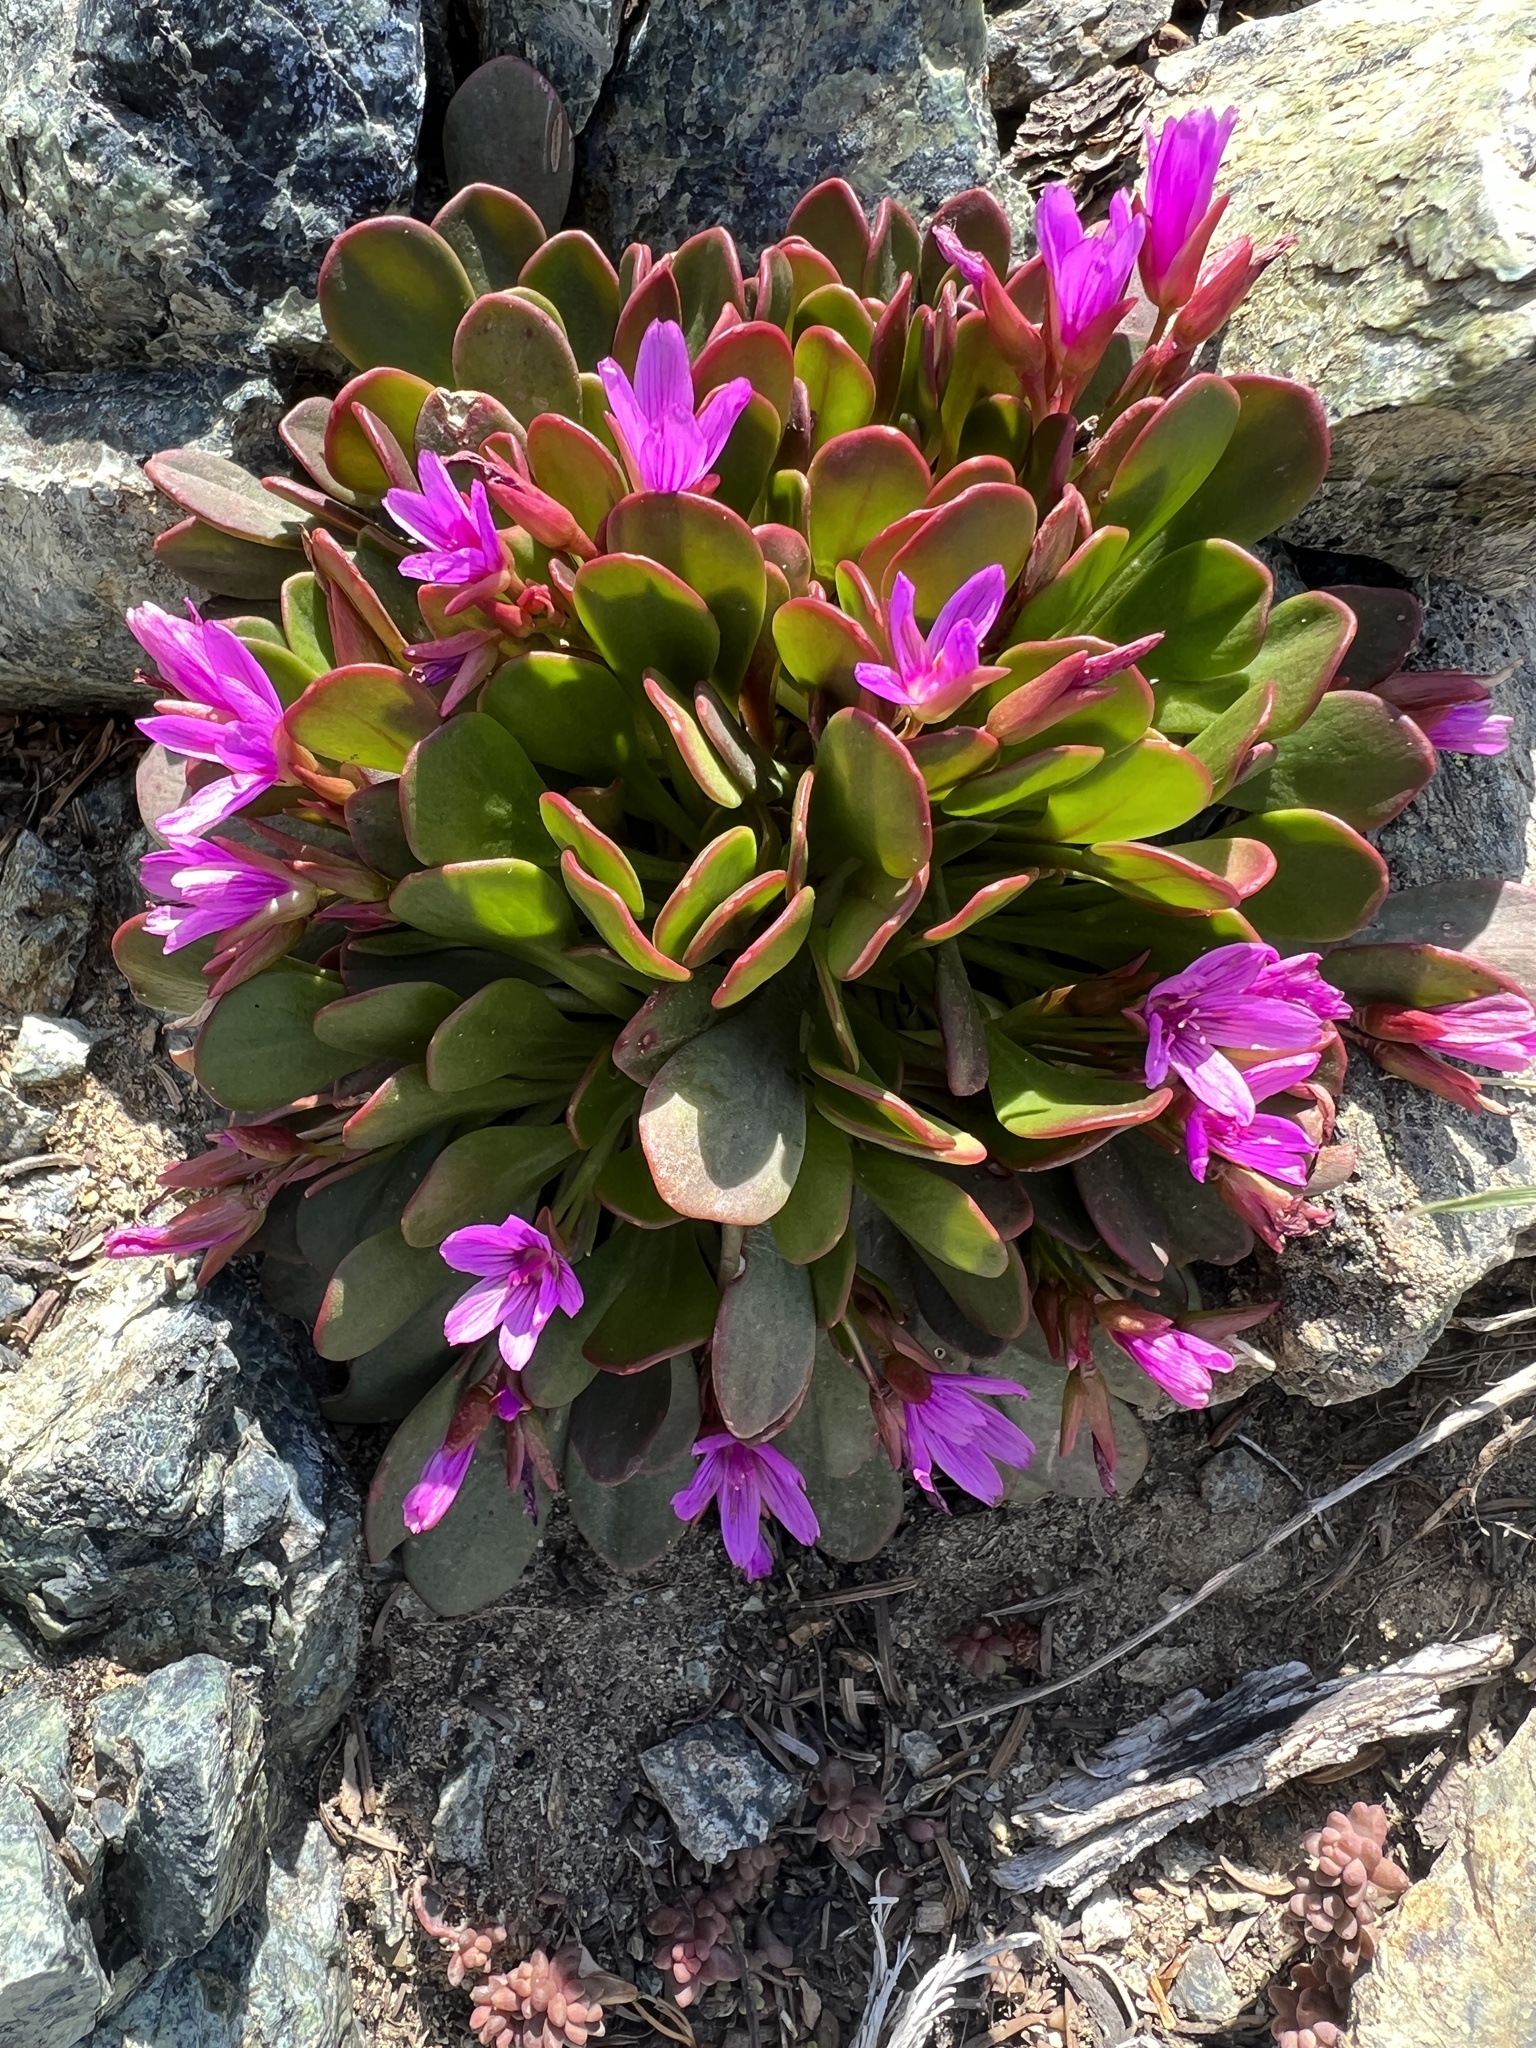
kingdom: Plantae
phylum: Tracheophyta
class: Magnoliopsida
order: Caryophyllales
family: Montiaceae
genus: Claytonia
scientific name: Claytonia megarhiza
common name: Alpine spring beauty
